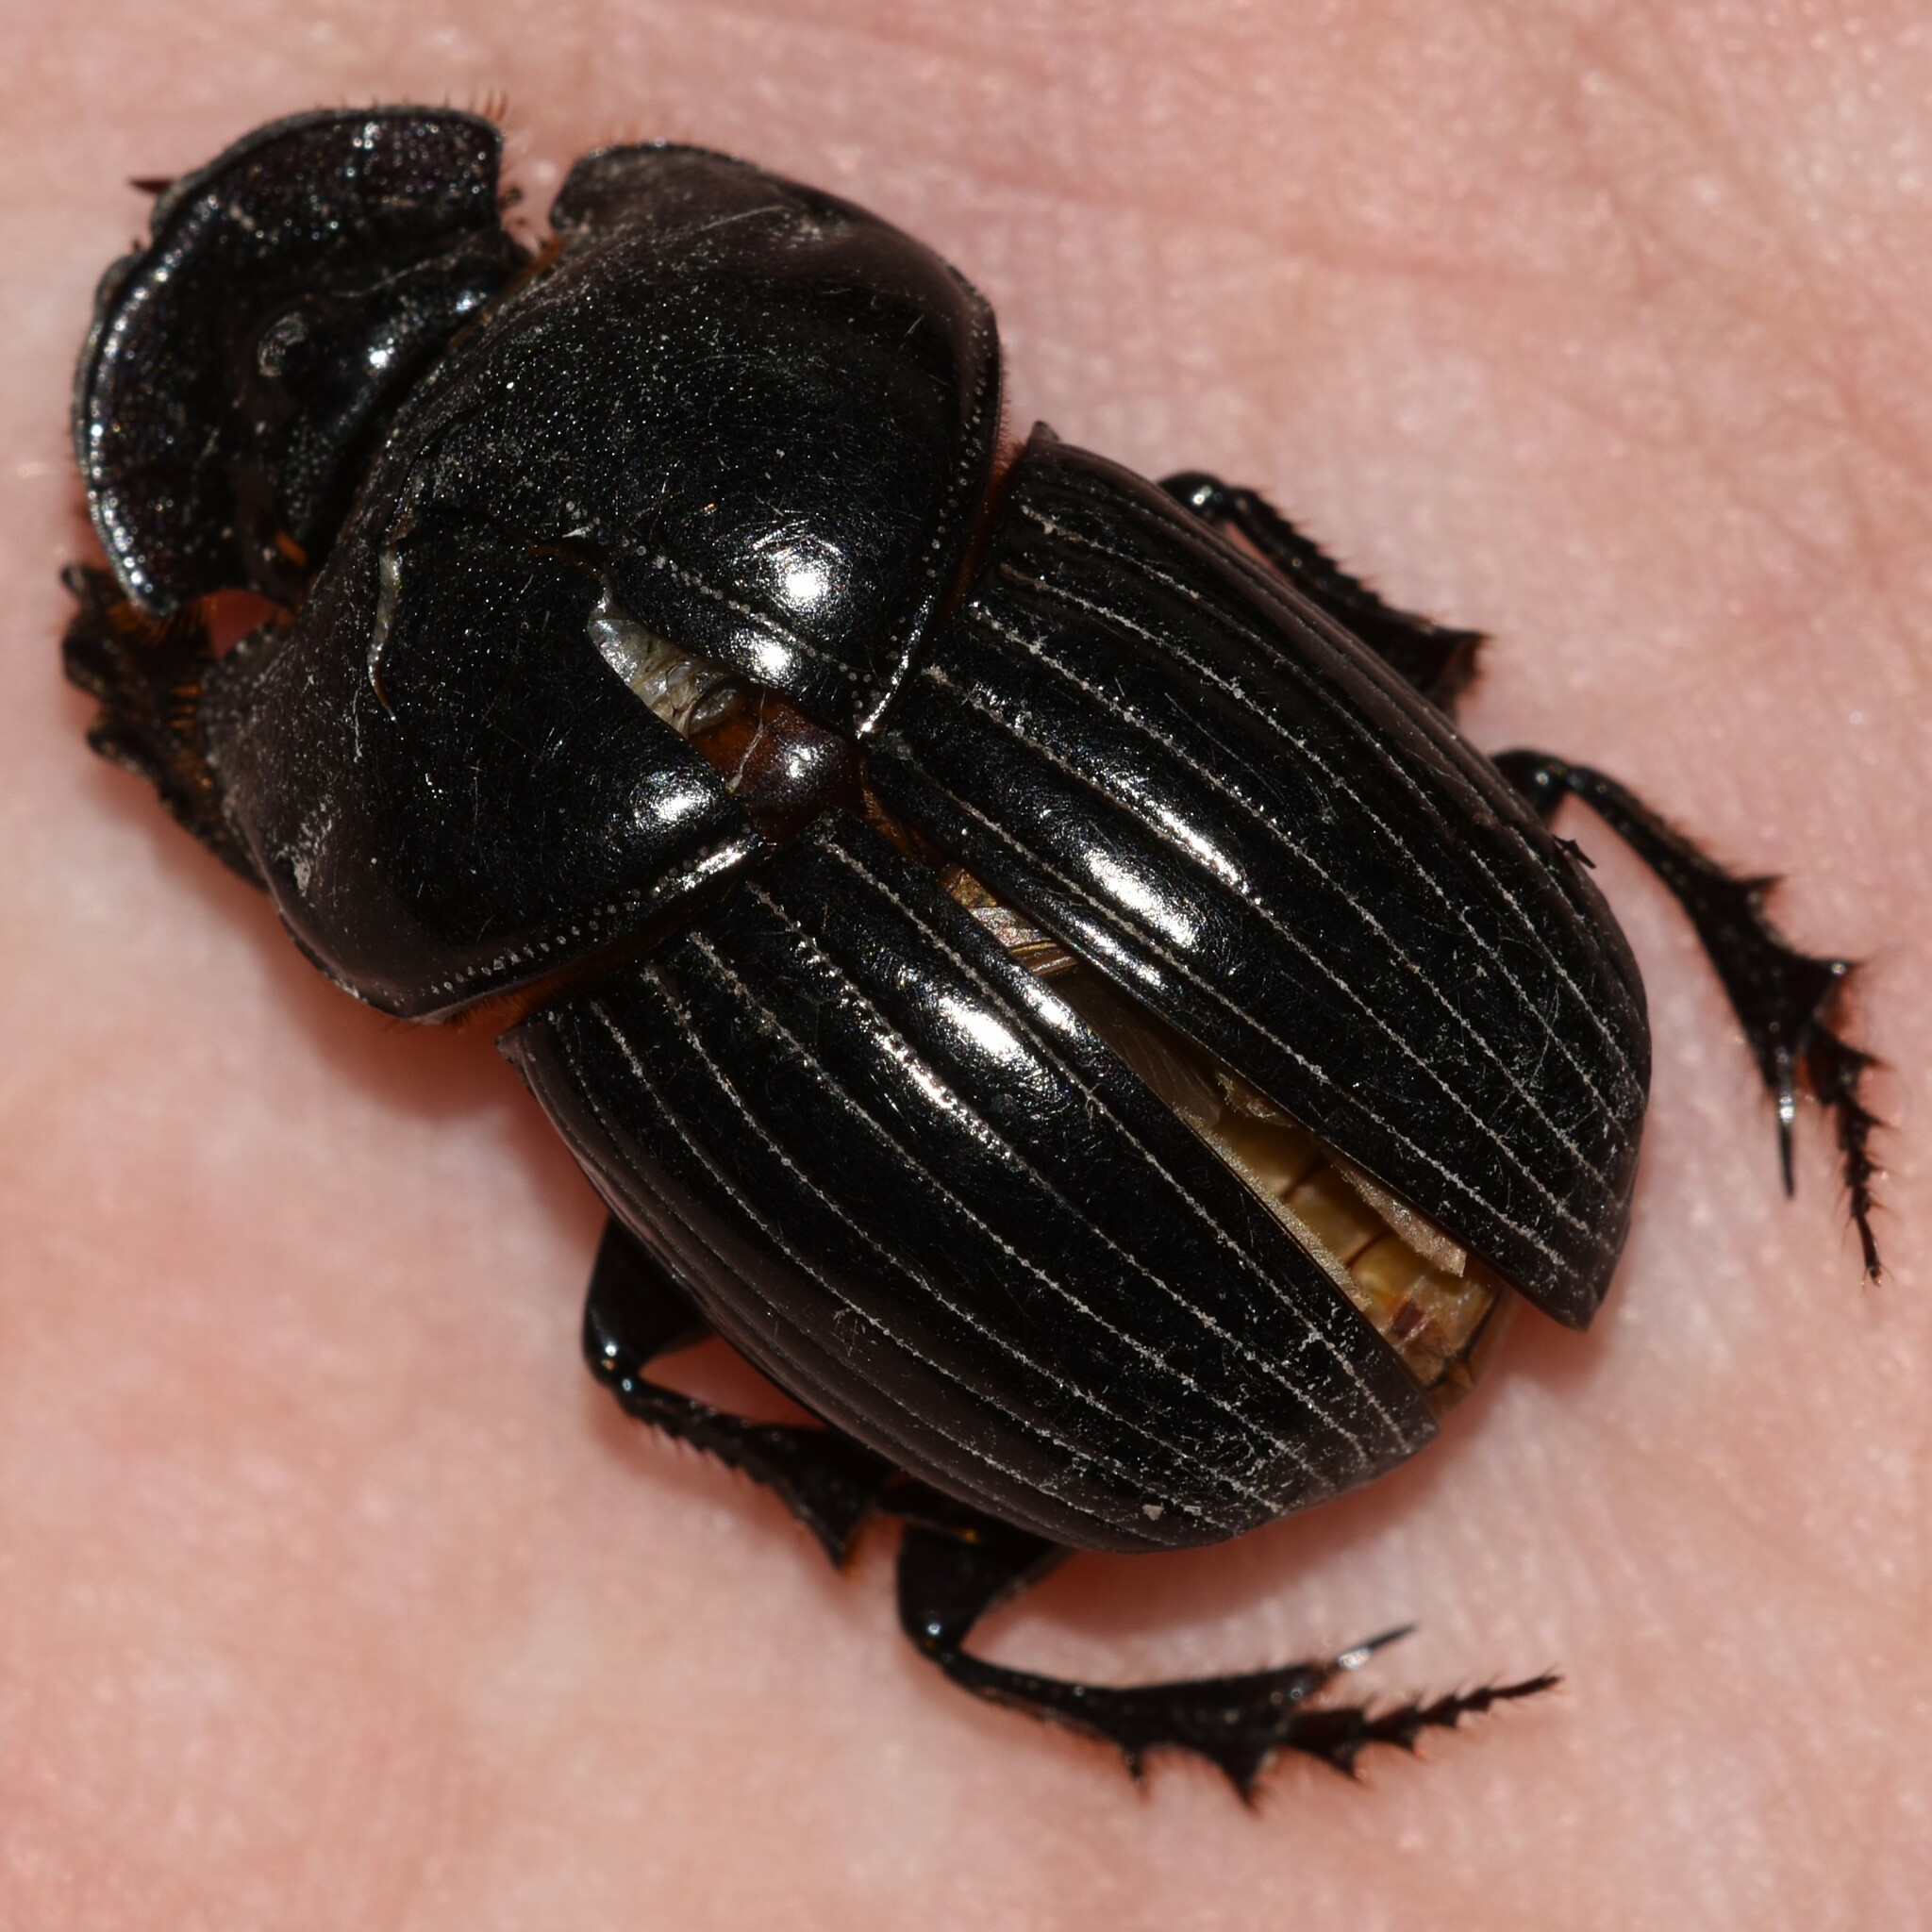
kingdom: Animalia
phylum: Arthropoda
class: Insecta
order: Coleoptera
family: Scarabaeidae
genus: Copris
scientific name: Copris incertus
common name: Uncertain dung beetle
